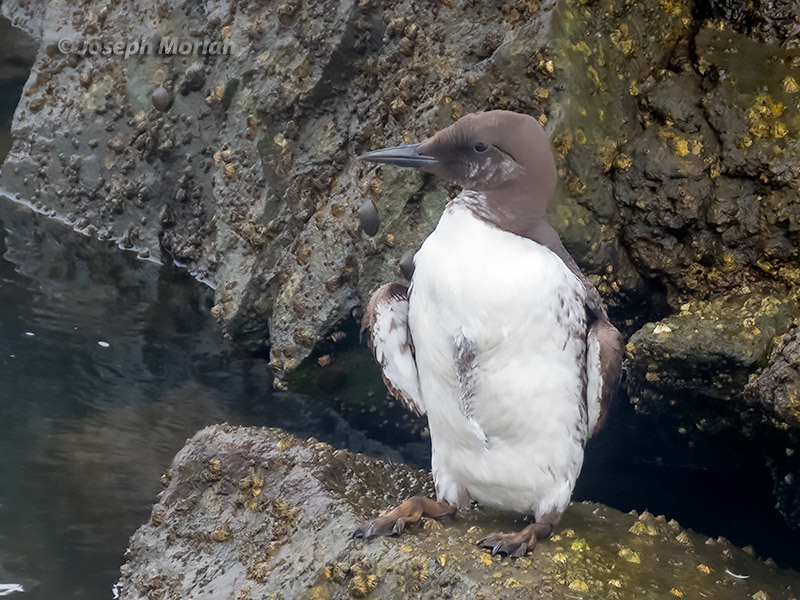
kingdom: Animalia
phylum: Chordata
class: Aves
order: Charadriiformes
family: Alcidae
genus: Uria
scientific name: Uria aalge
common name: Common murre
